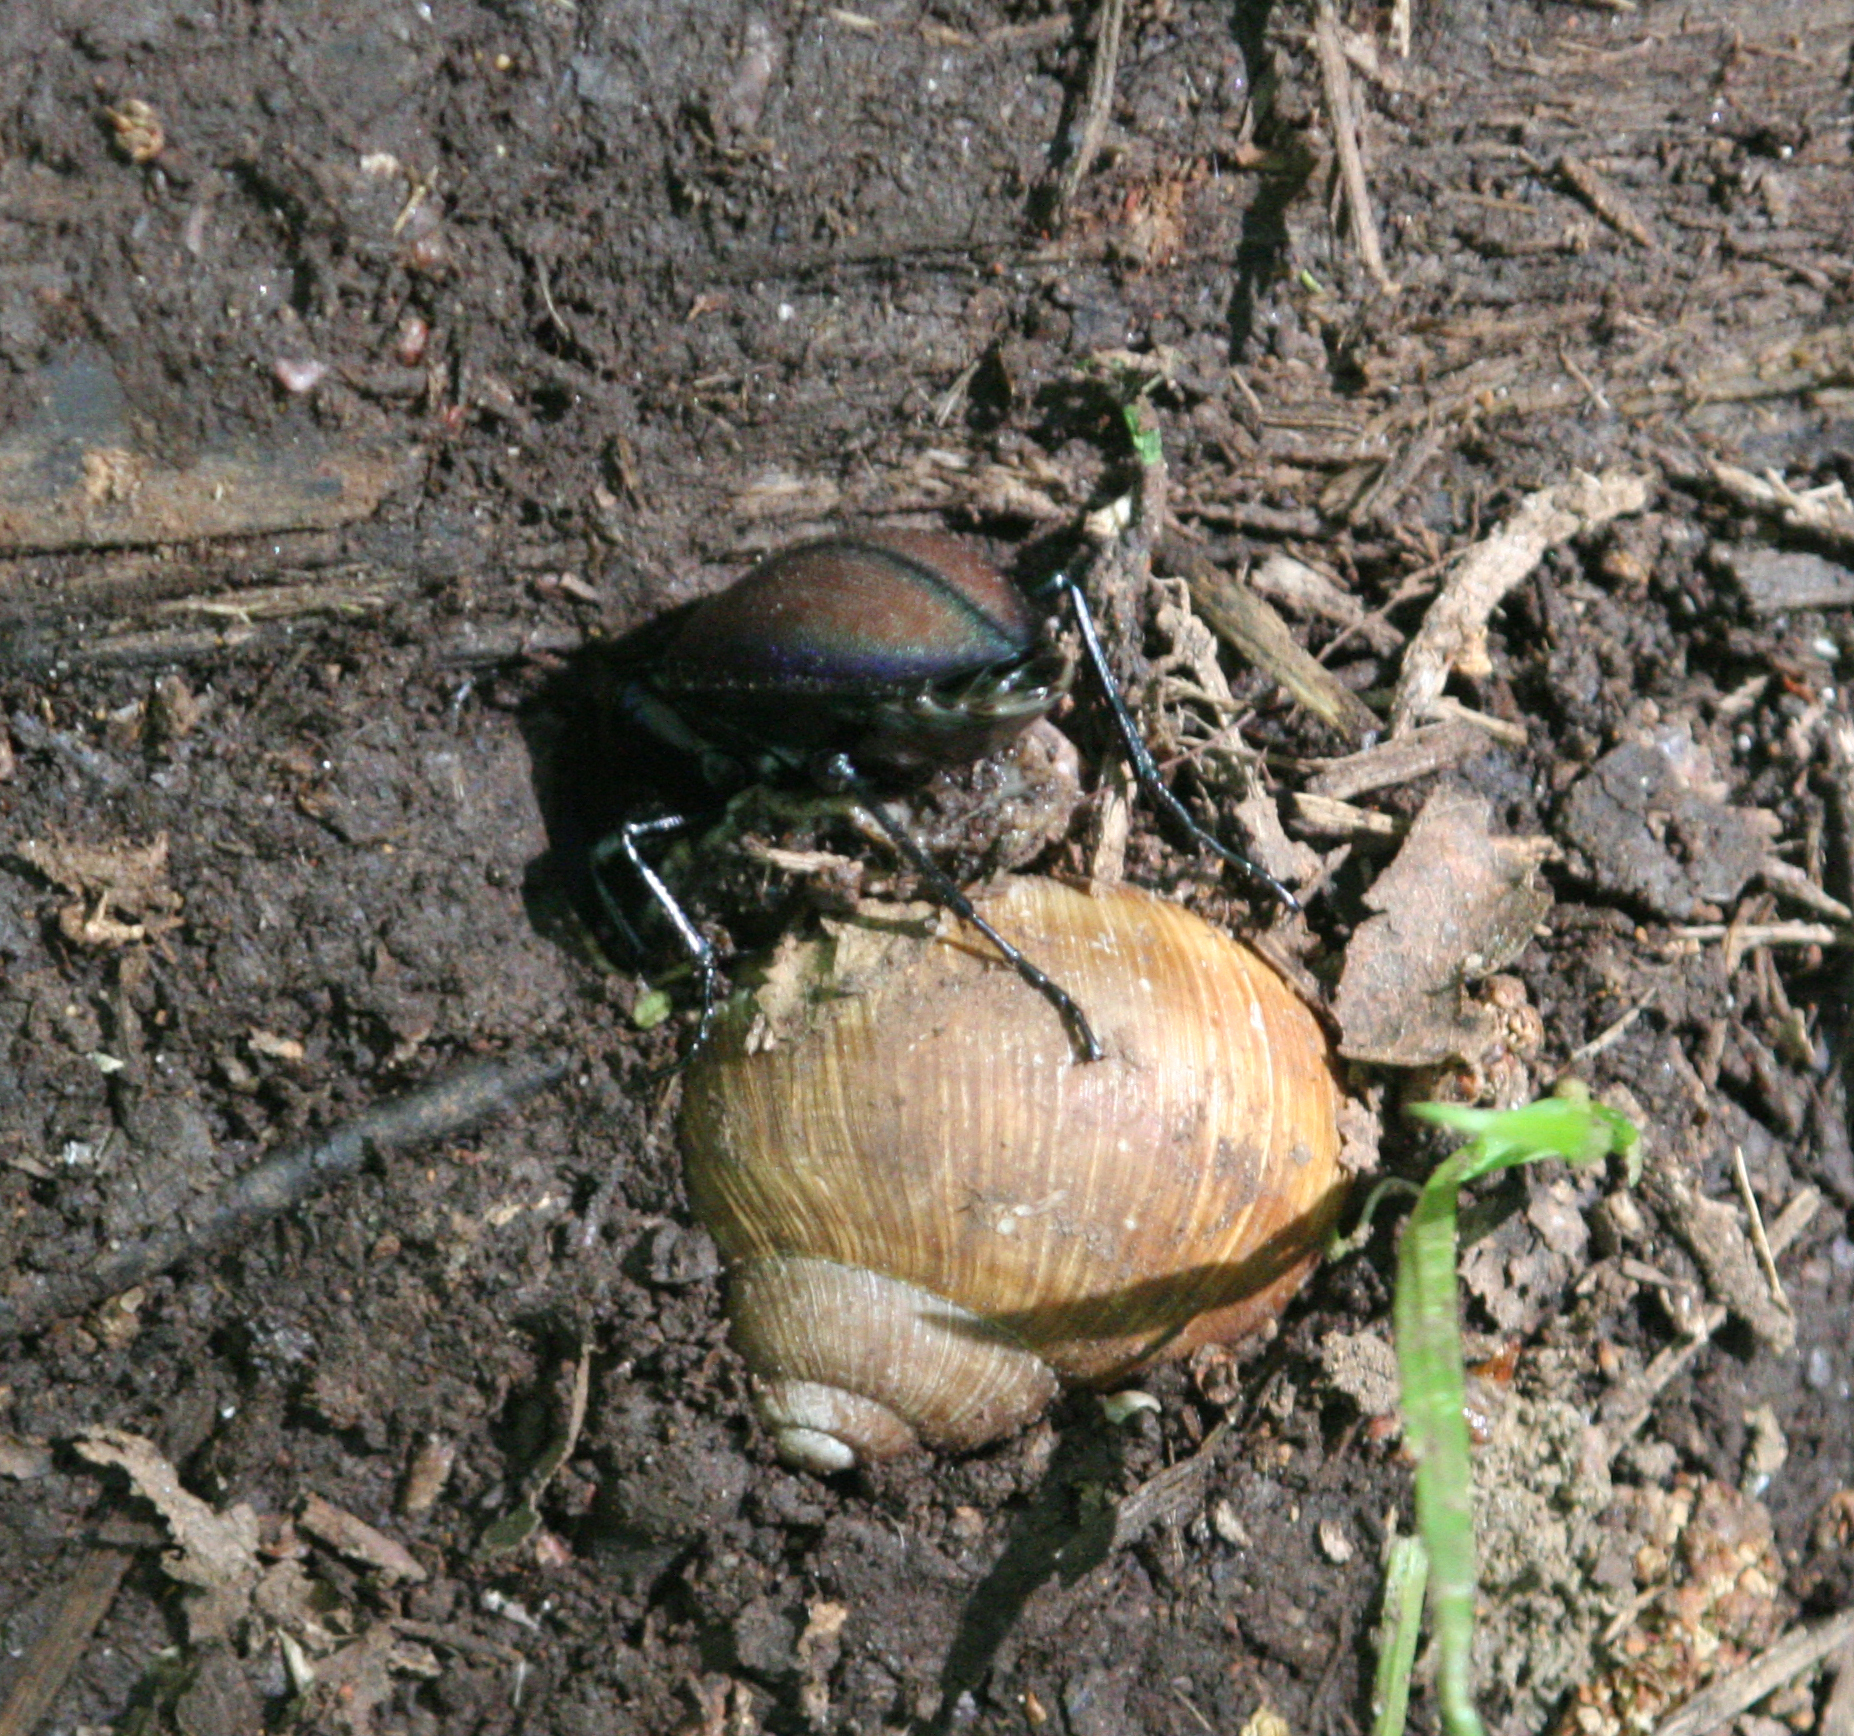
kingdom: Animalia
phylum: Arthropoda
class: Insecta
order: Coleoptera
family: Carabidae
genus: Carabus
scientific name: Carabus schoenherri
